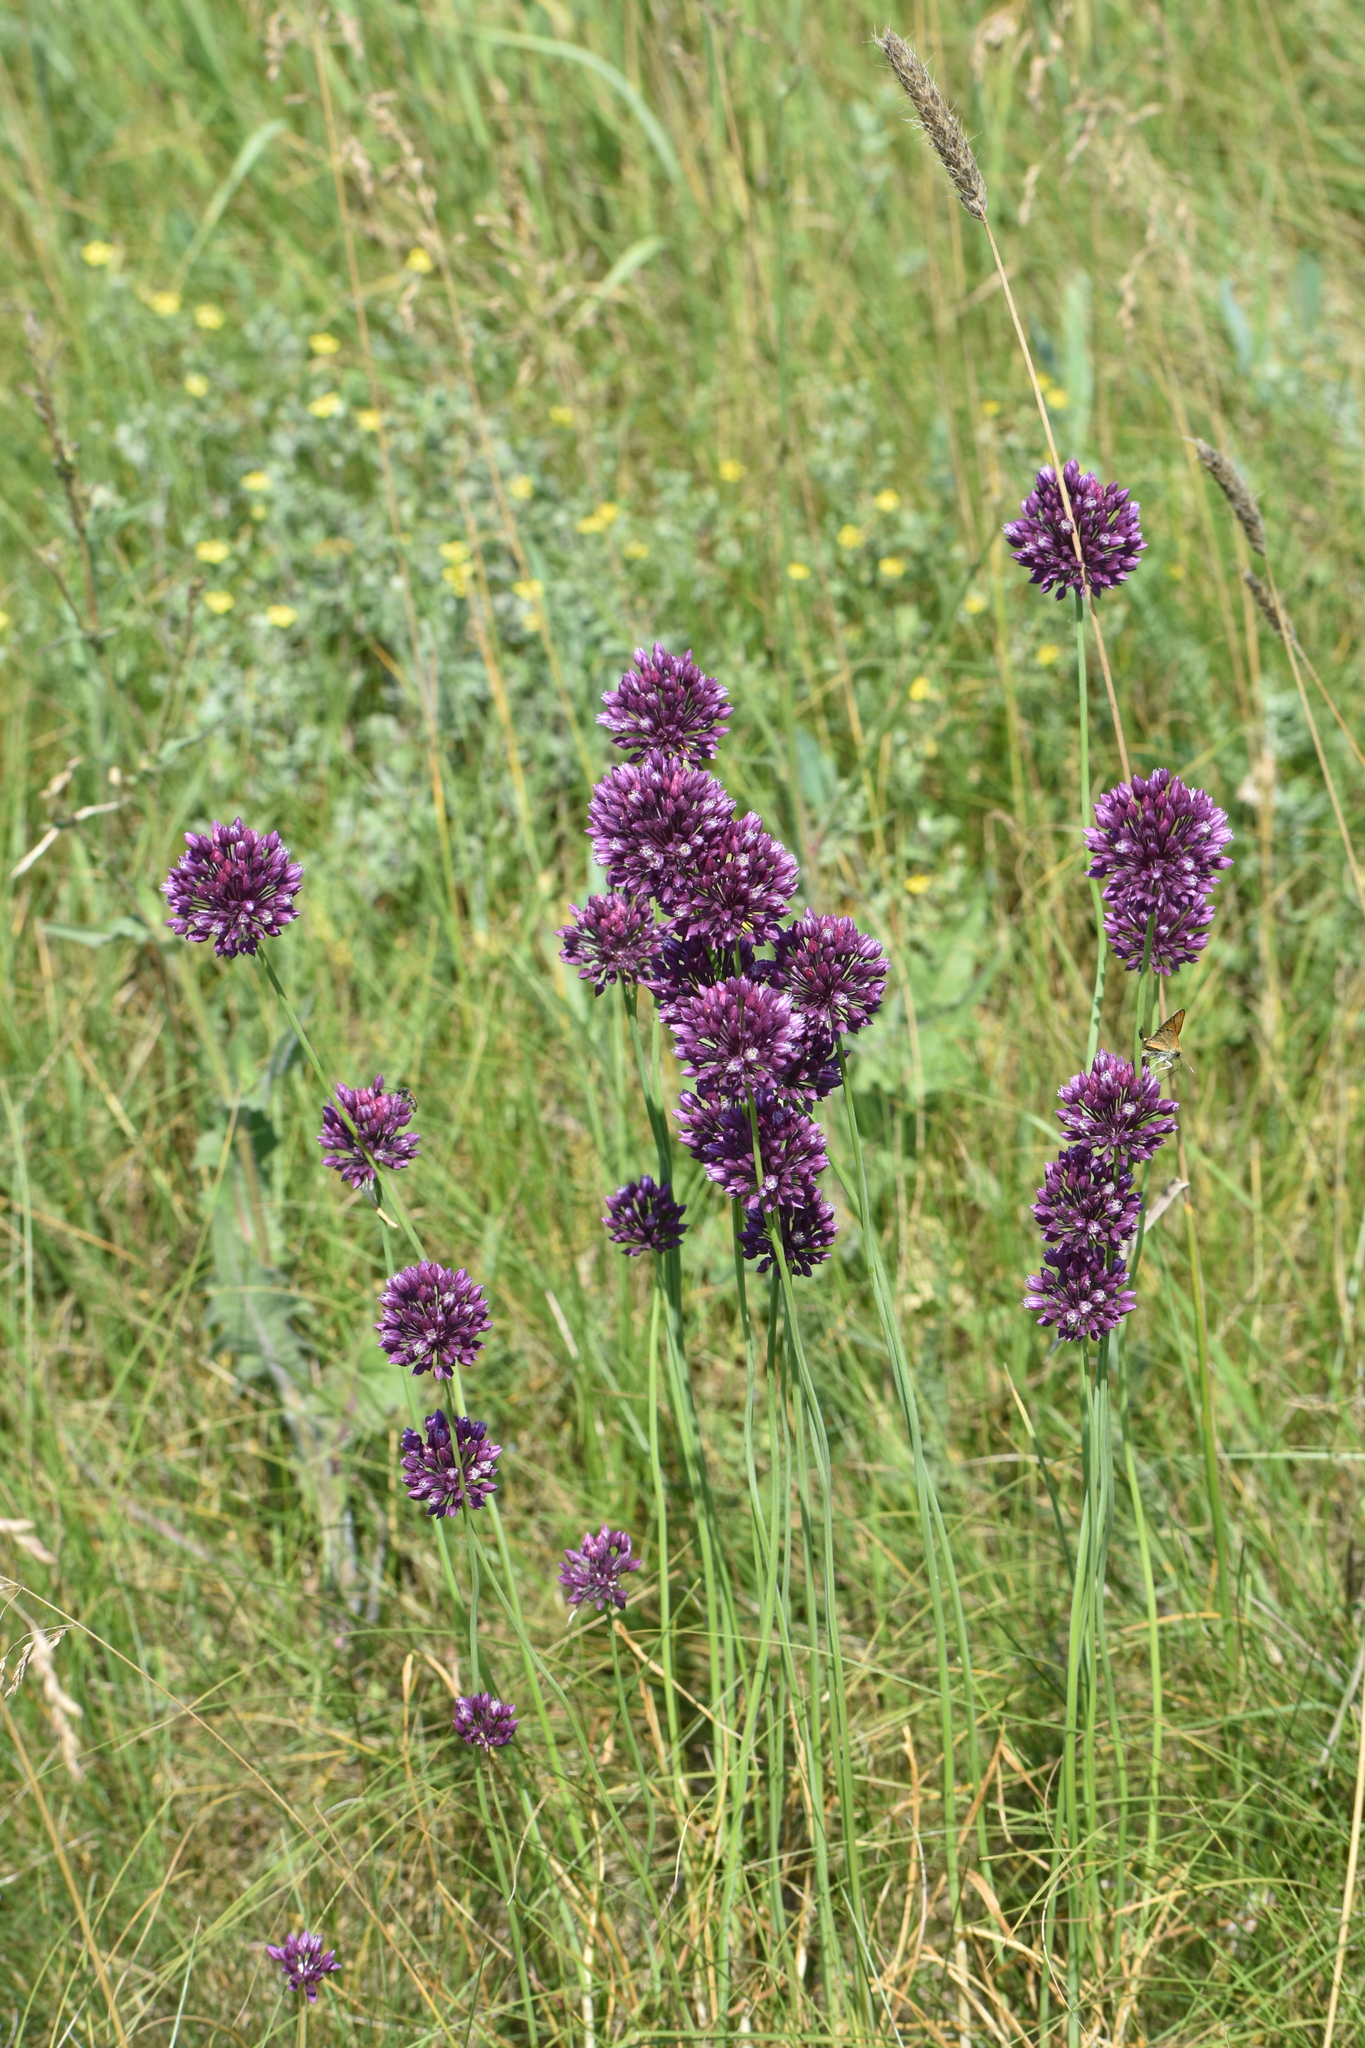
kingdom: Plantae
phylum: Tracheophyta
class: Liliopsida
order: Asparagales
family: Amaryllidaceae
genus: Allium
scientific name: Allium rotundum
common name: Sand leek
